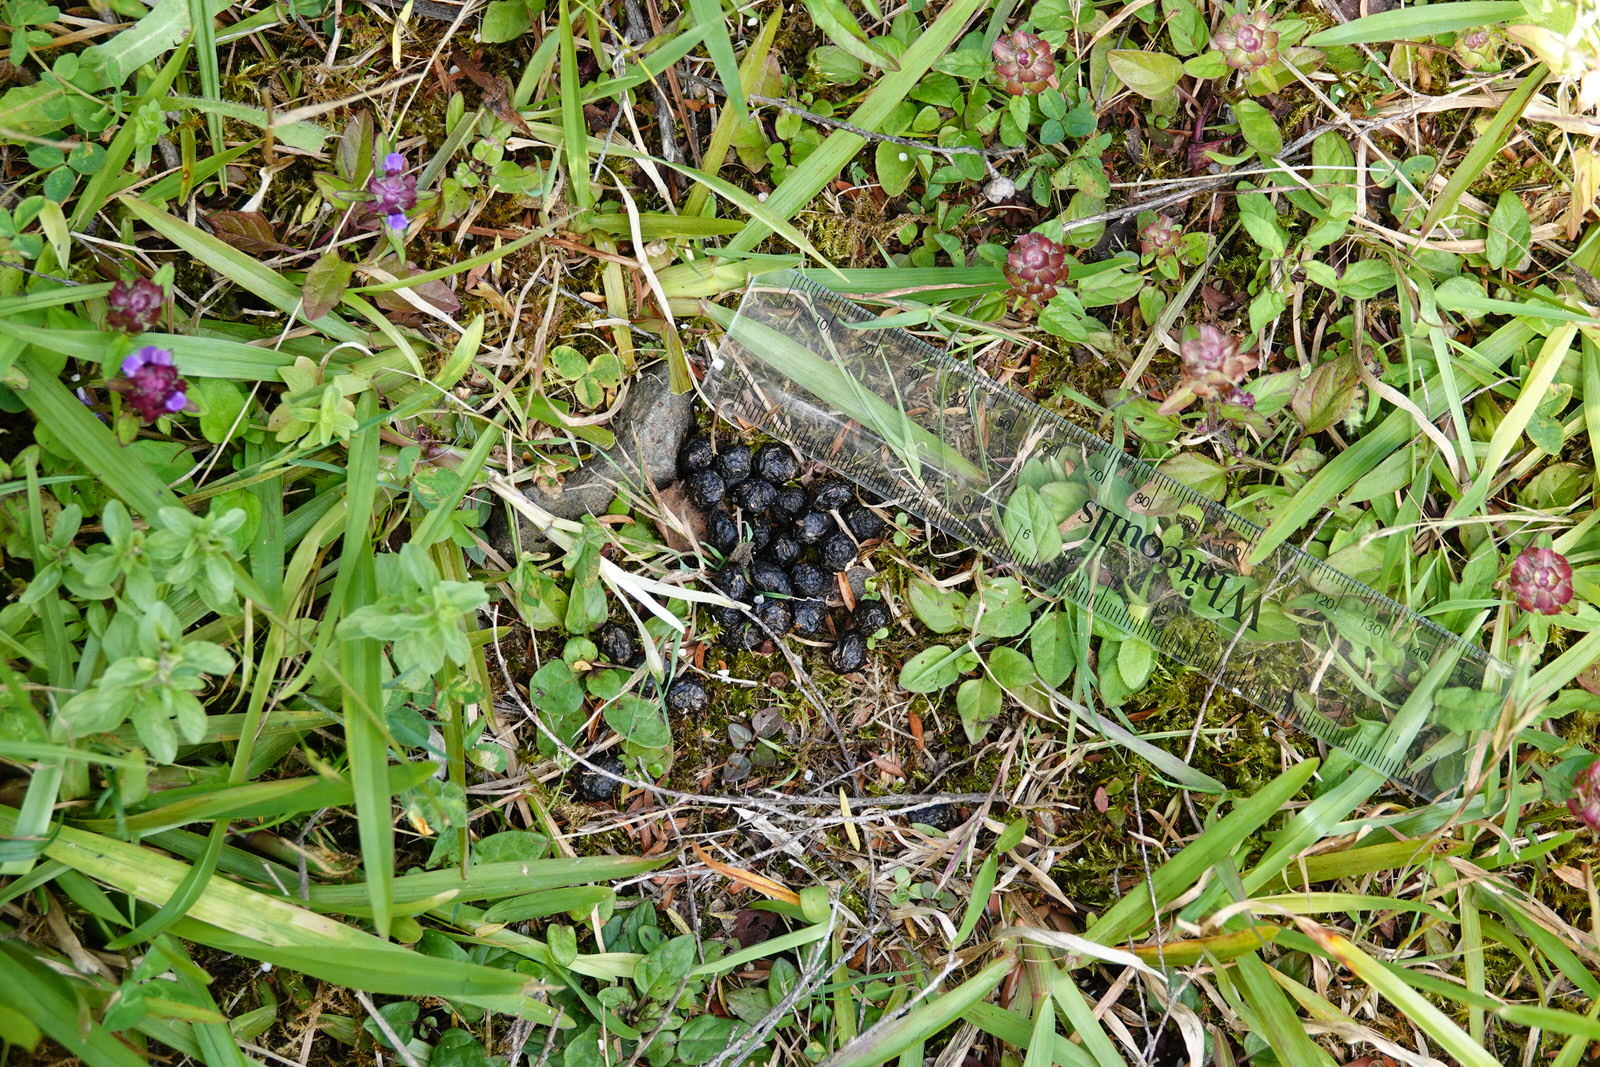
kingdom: Animalia
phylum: Chordata
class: Mammalia
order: Lagomorpha
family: Leporidae
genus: Oryctolagus
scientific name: Oryctolagus cuniculus
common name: European rabbit
